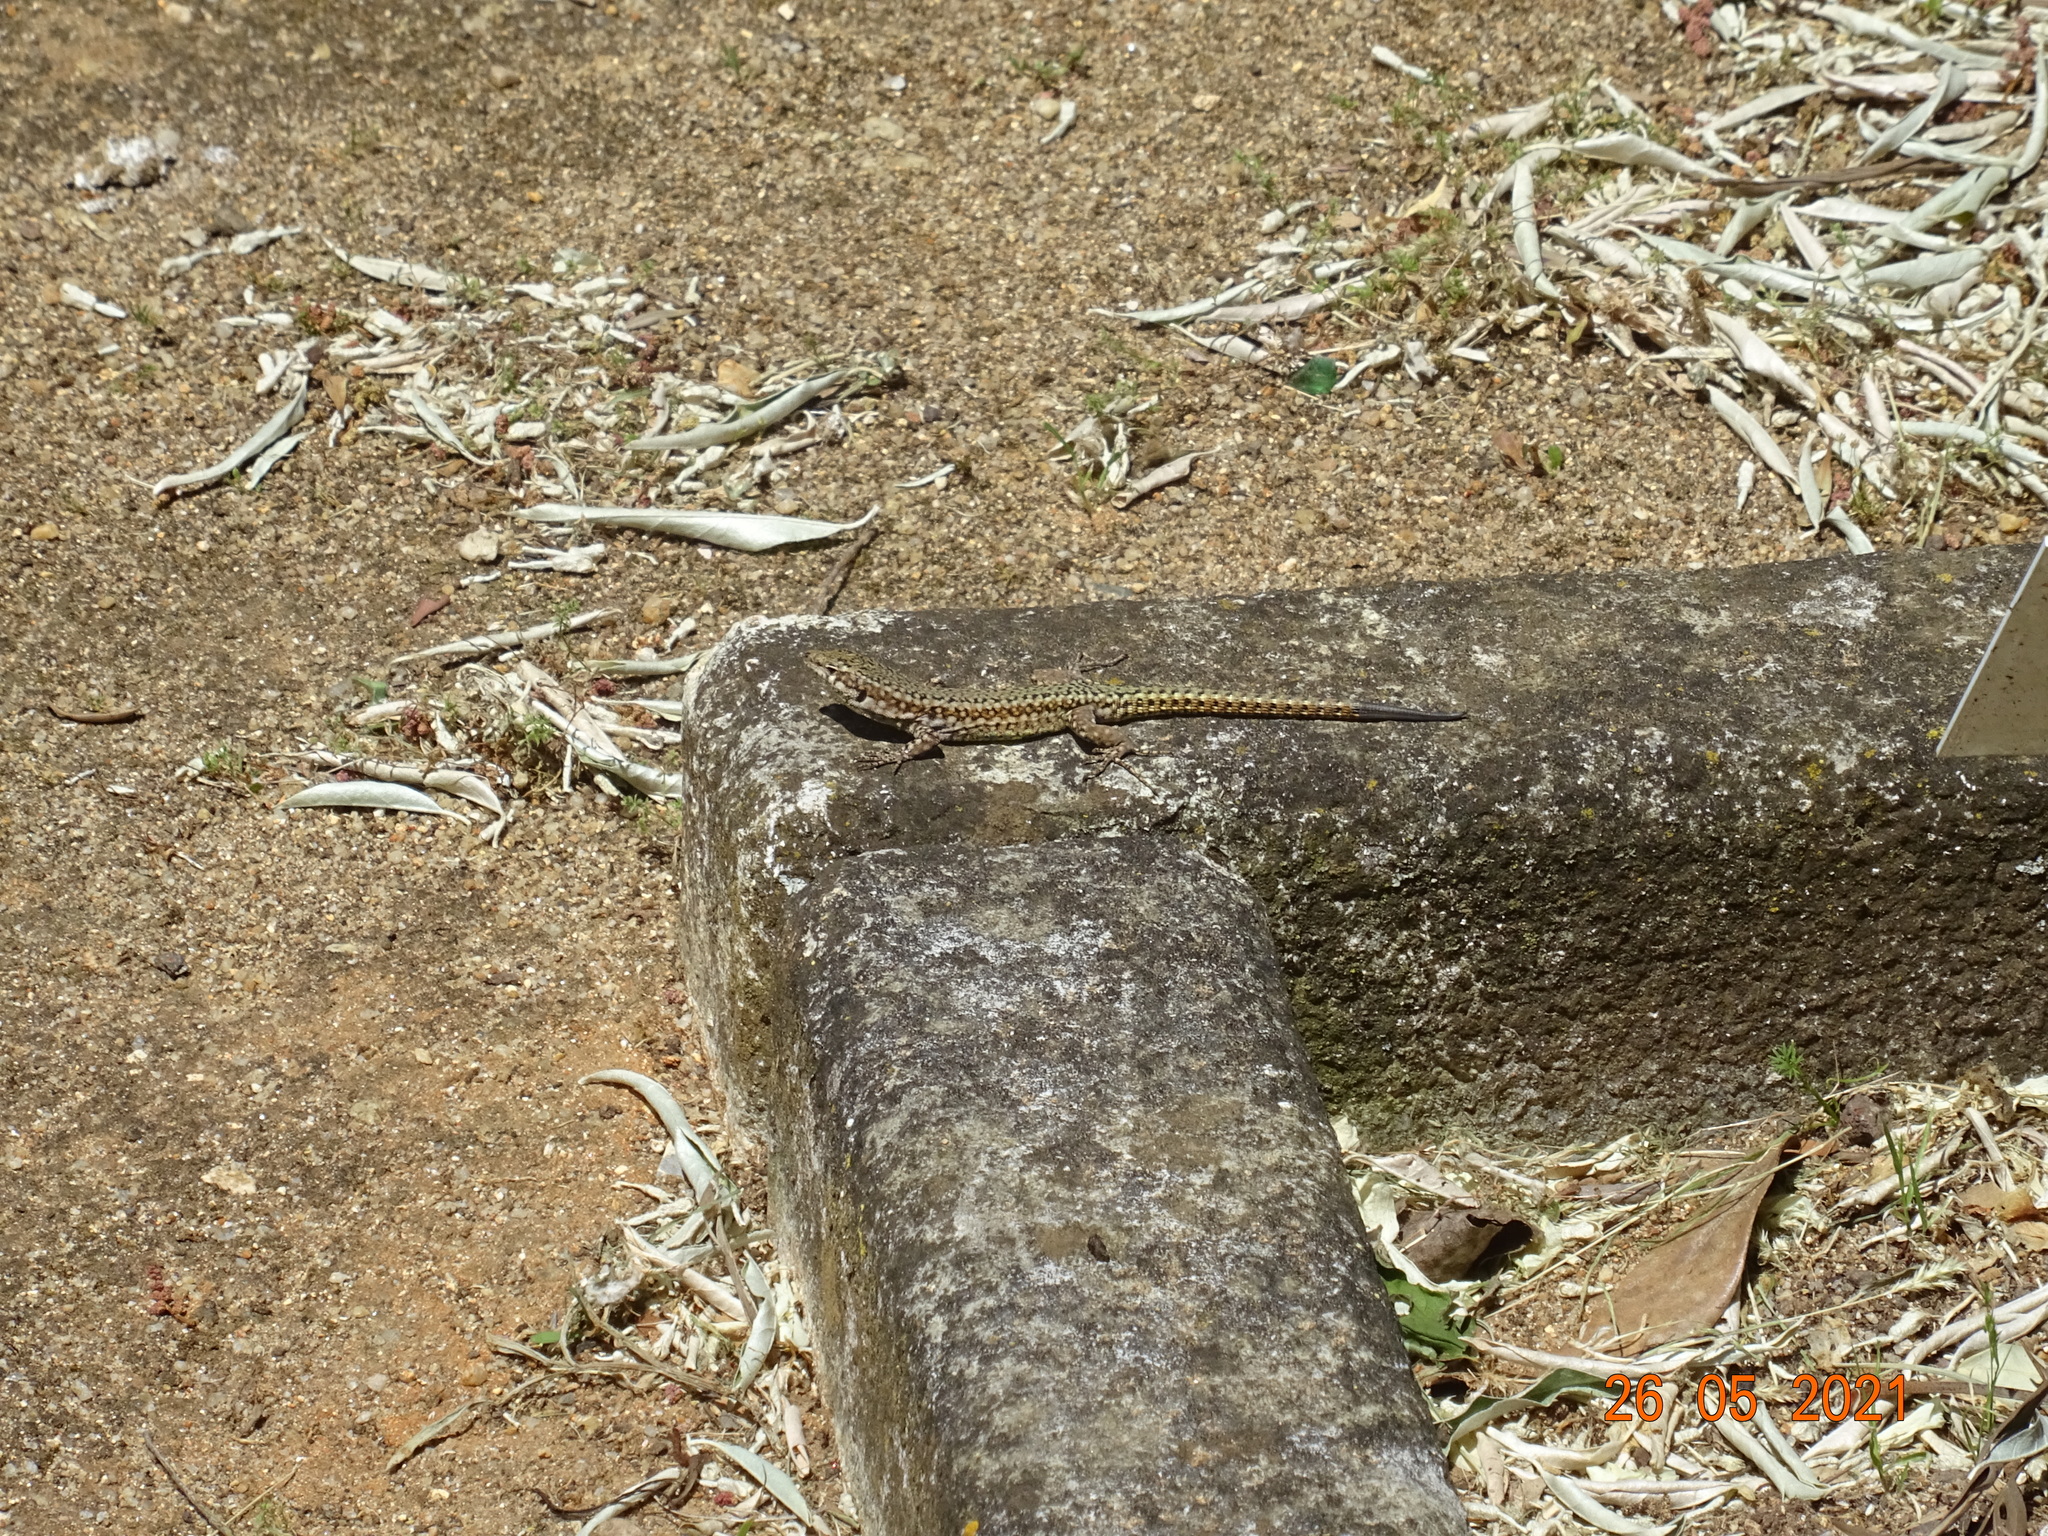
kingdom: Animalia
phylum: Chordata
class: Squamata
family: Lacertidae
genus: Podarcis
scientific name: Podarcis virescens
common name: Geniez’s wall lizard
